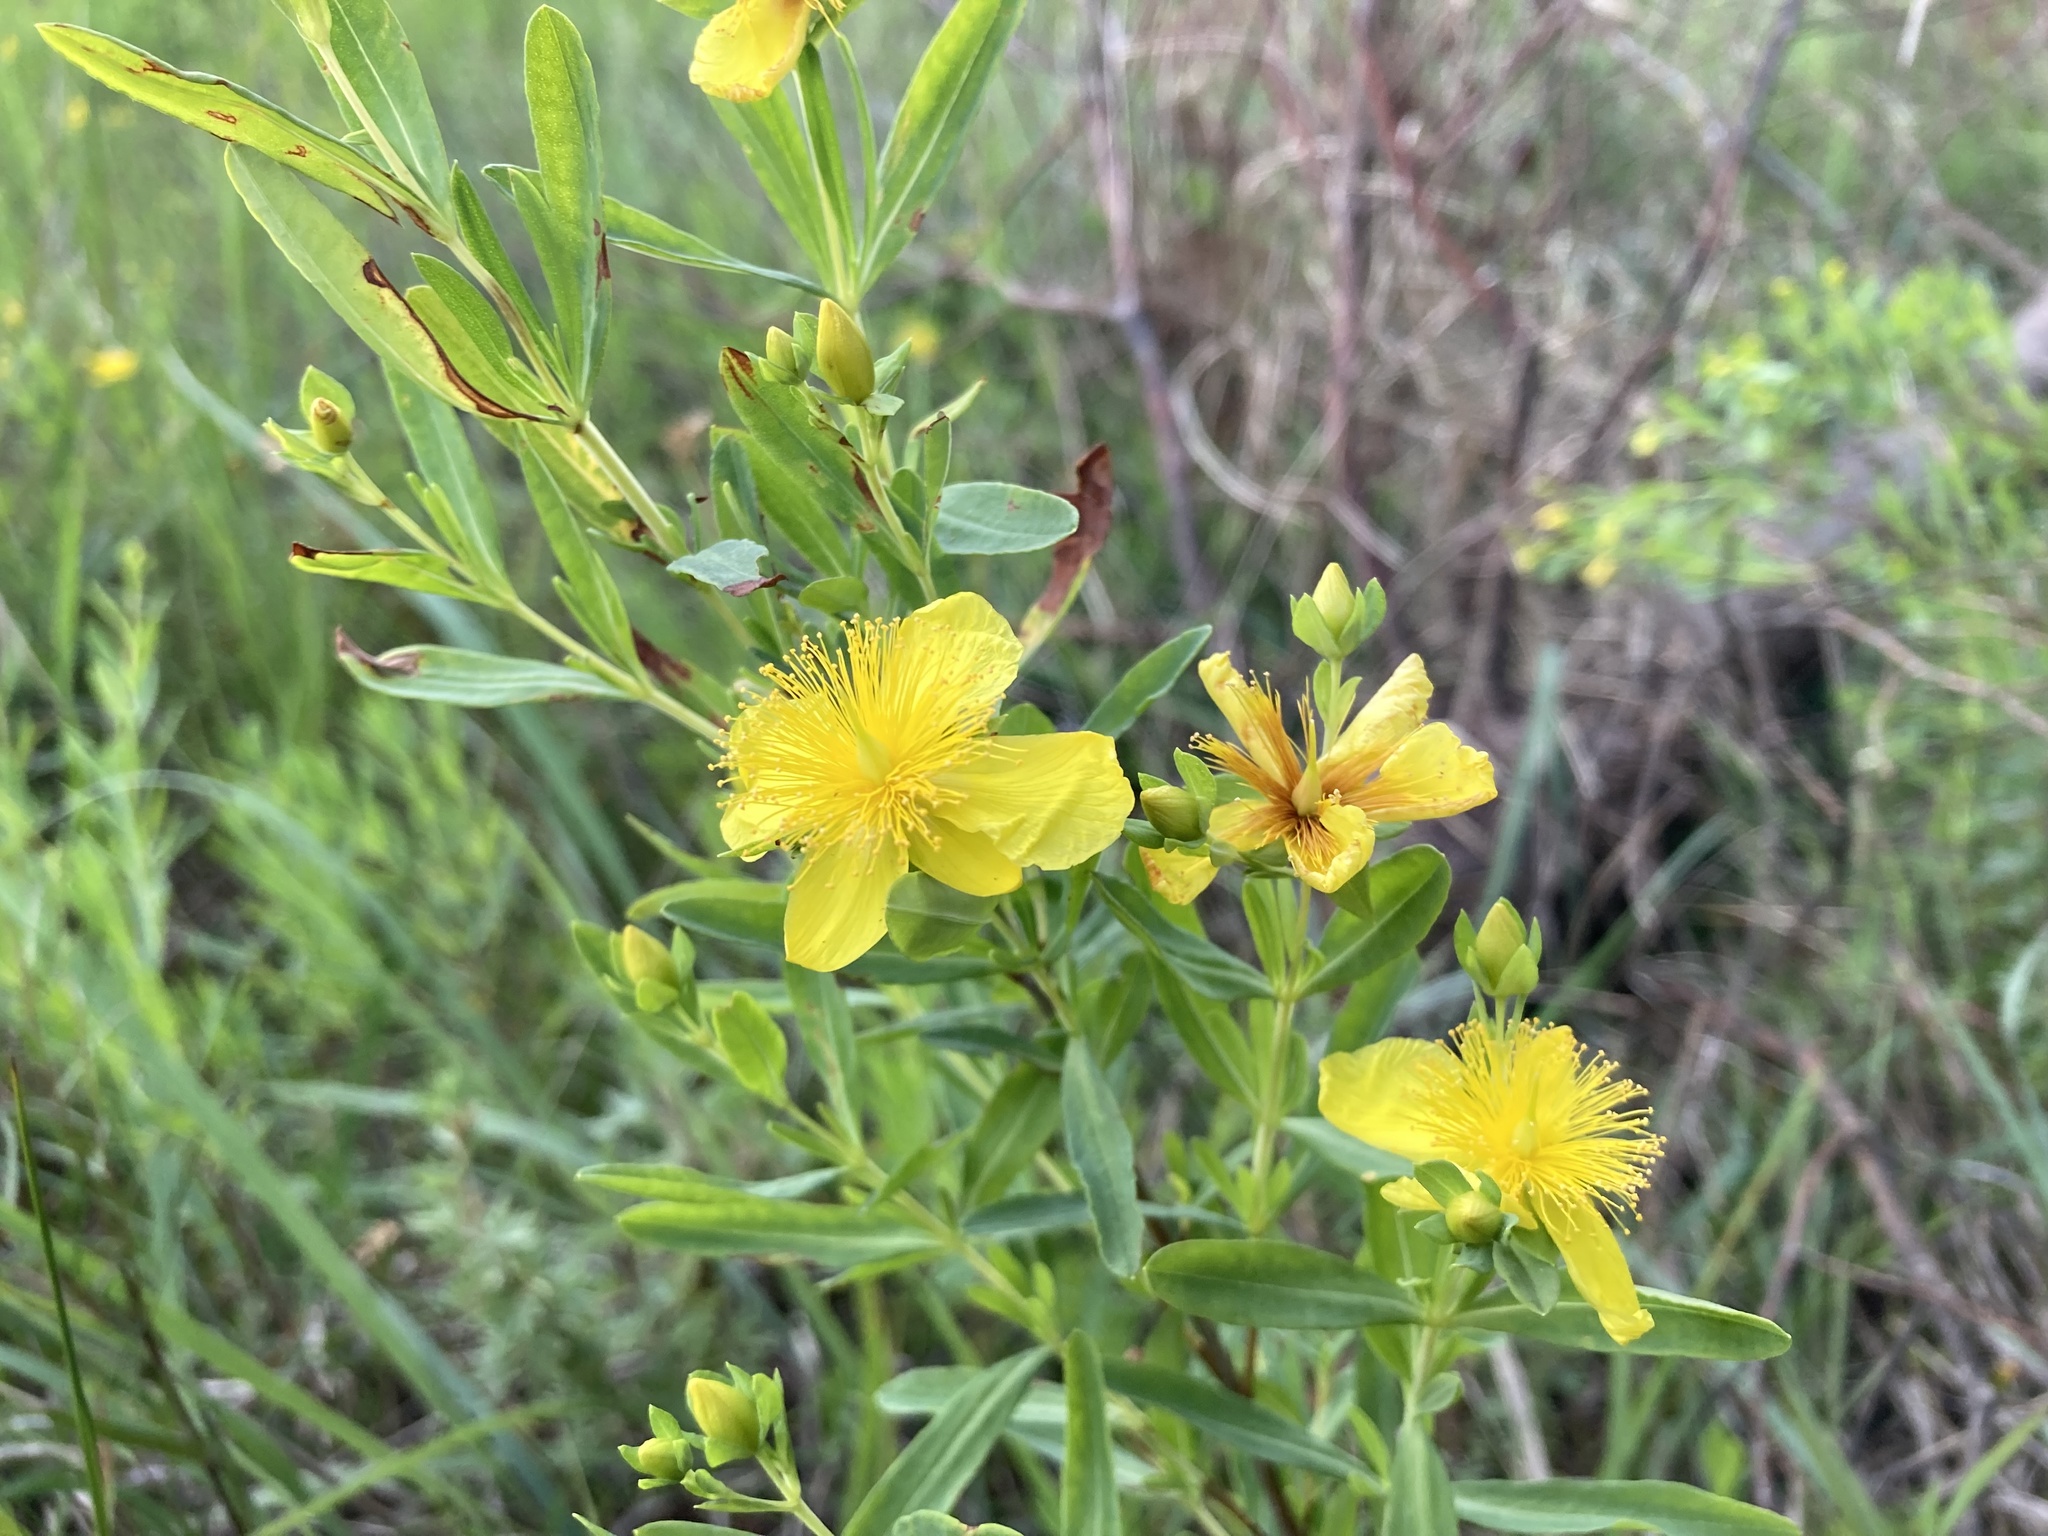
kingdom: Plantae
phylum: Tracheophyta
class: Magnoliopsida
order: Malpighiales
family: Hypericaceae
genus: Hypericum
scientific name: Hypericum kalmianum
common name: Kalm's st. john's-wort
